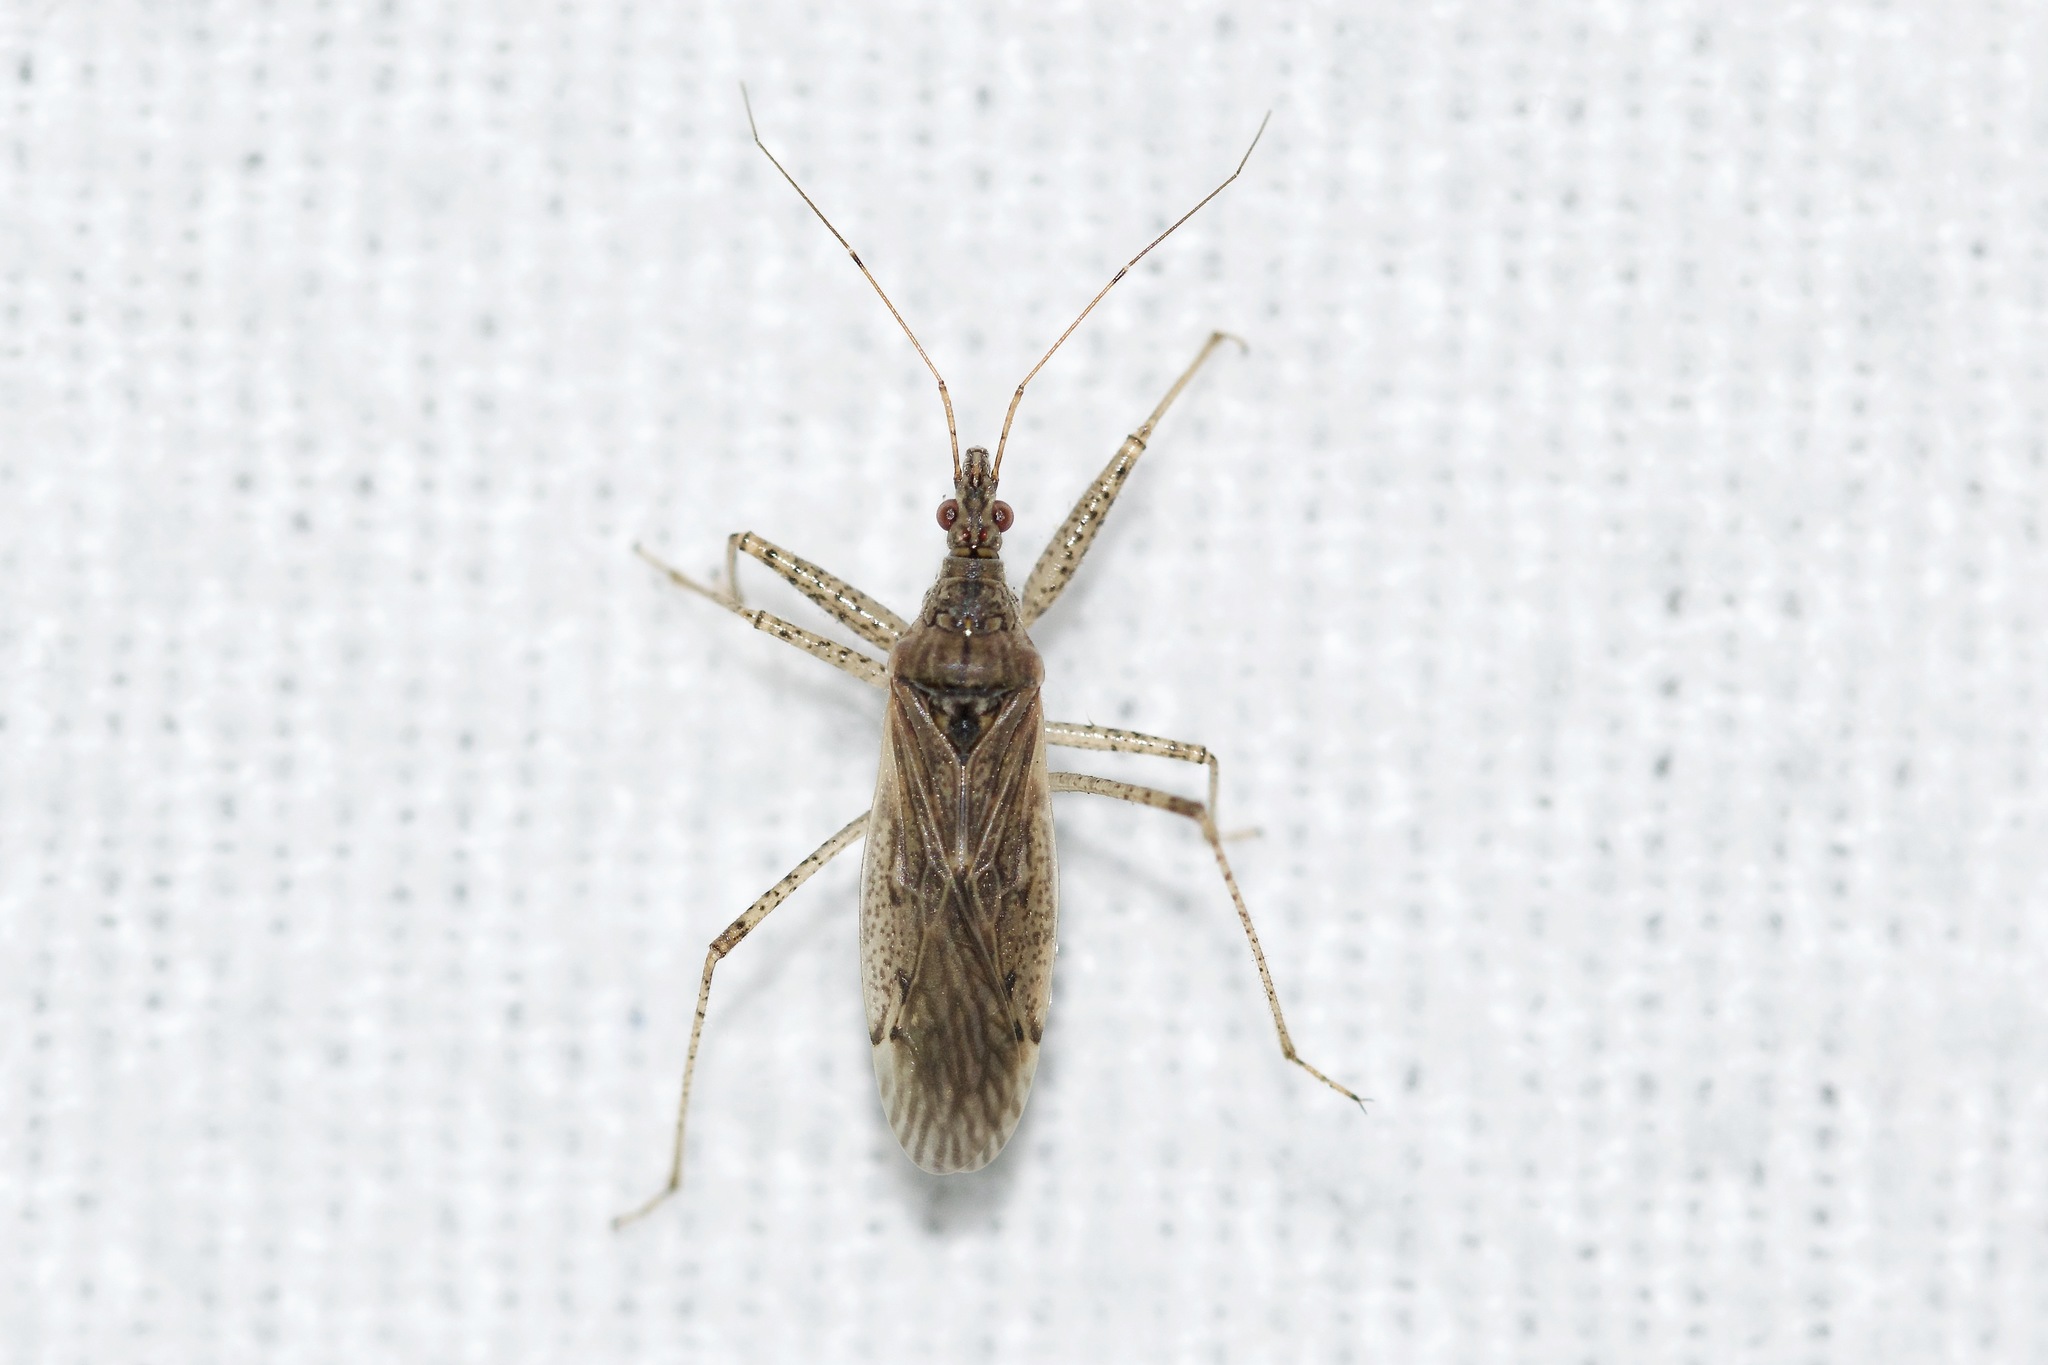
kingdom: Animalia
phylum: Arthropoda
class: Insecta
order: Hemiptera
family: Nabidae
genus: Nabis
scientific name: Nabis roseipennis
